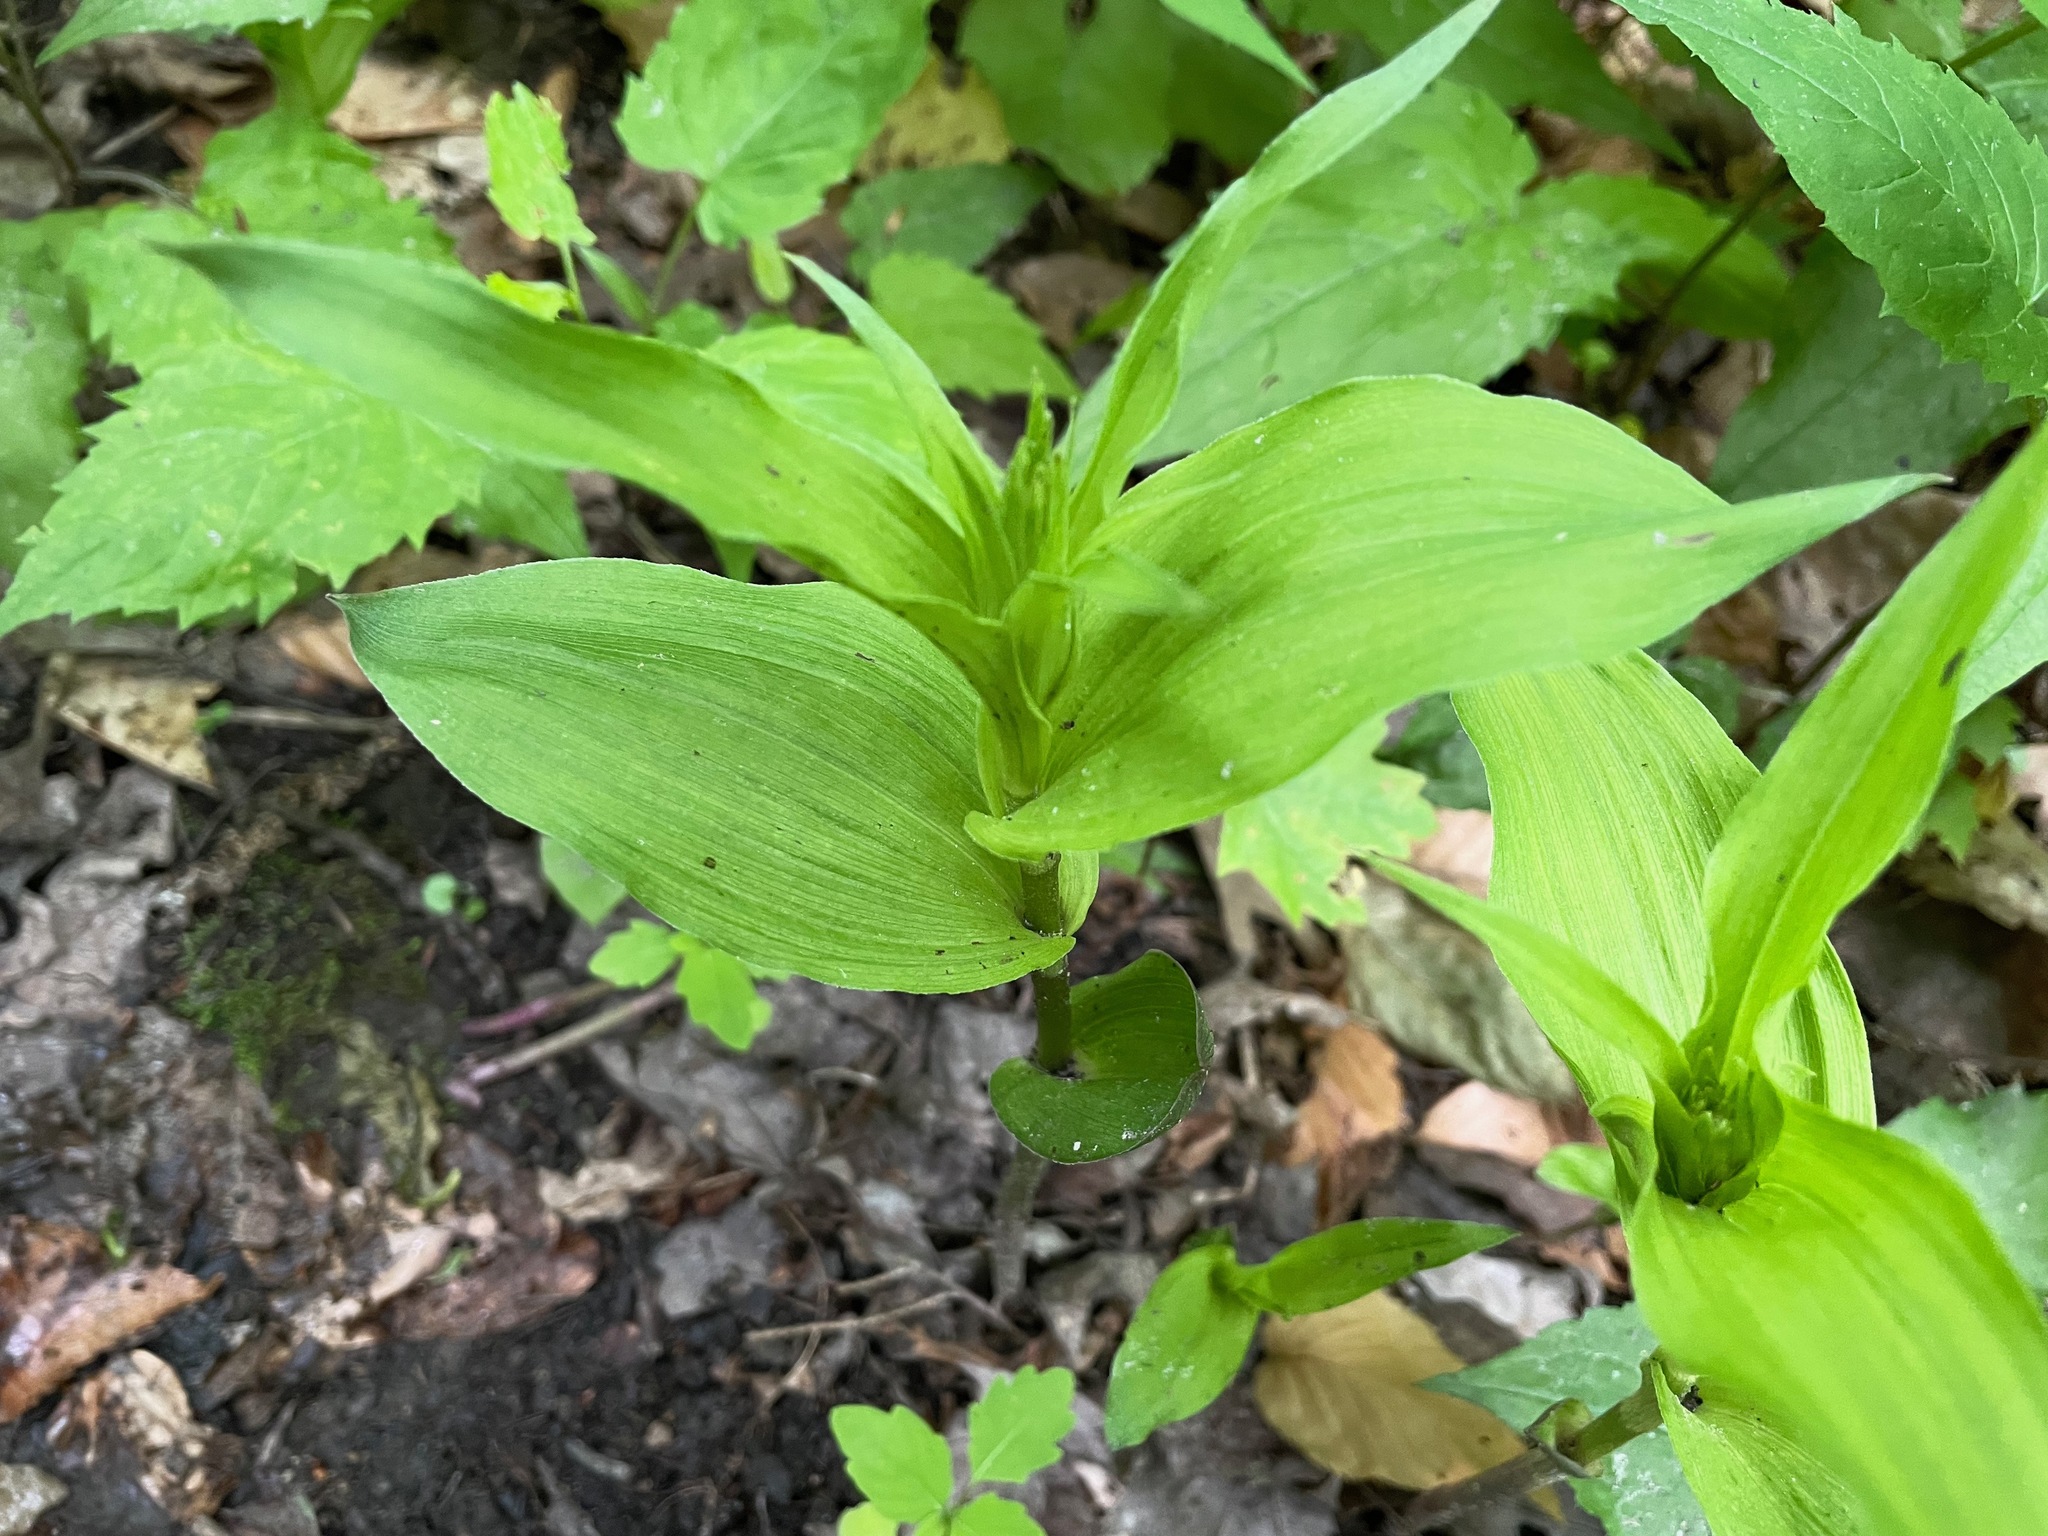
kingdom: Plantae
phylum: Tracheophyta
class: Liliopsida
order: Asparagales
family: Orchidaceae
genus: Epipactis
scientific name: Epipactis helleborine
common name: Broad-leaved helleborine
